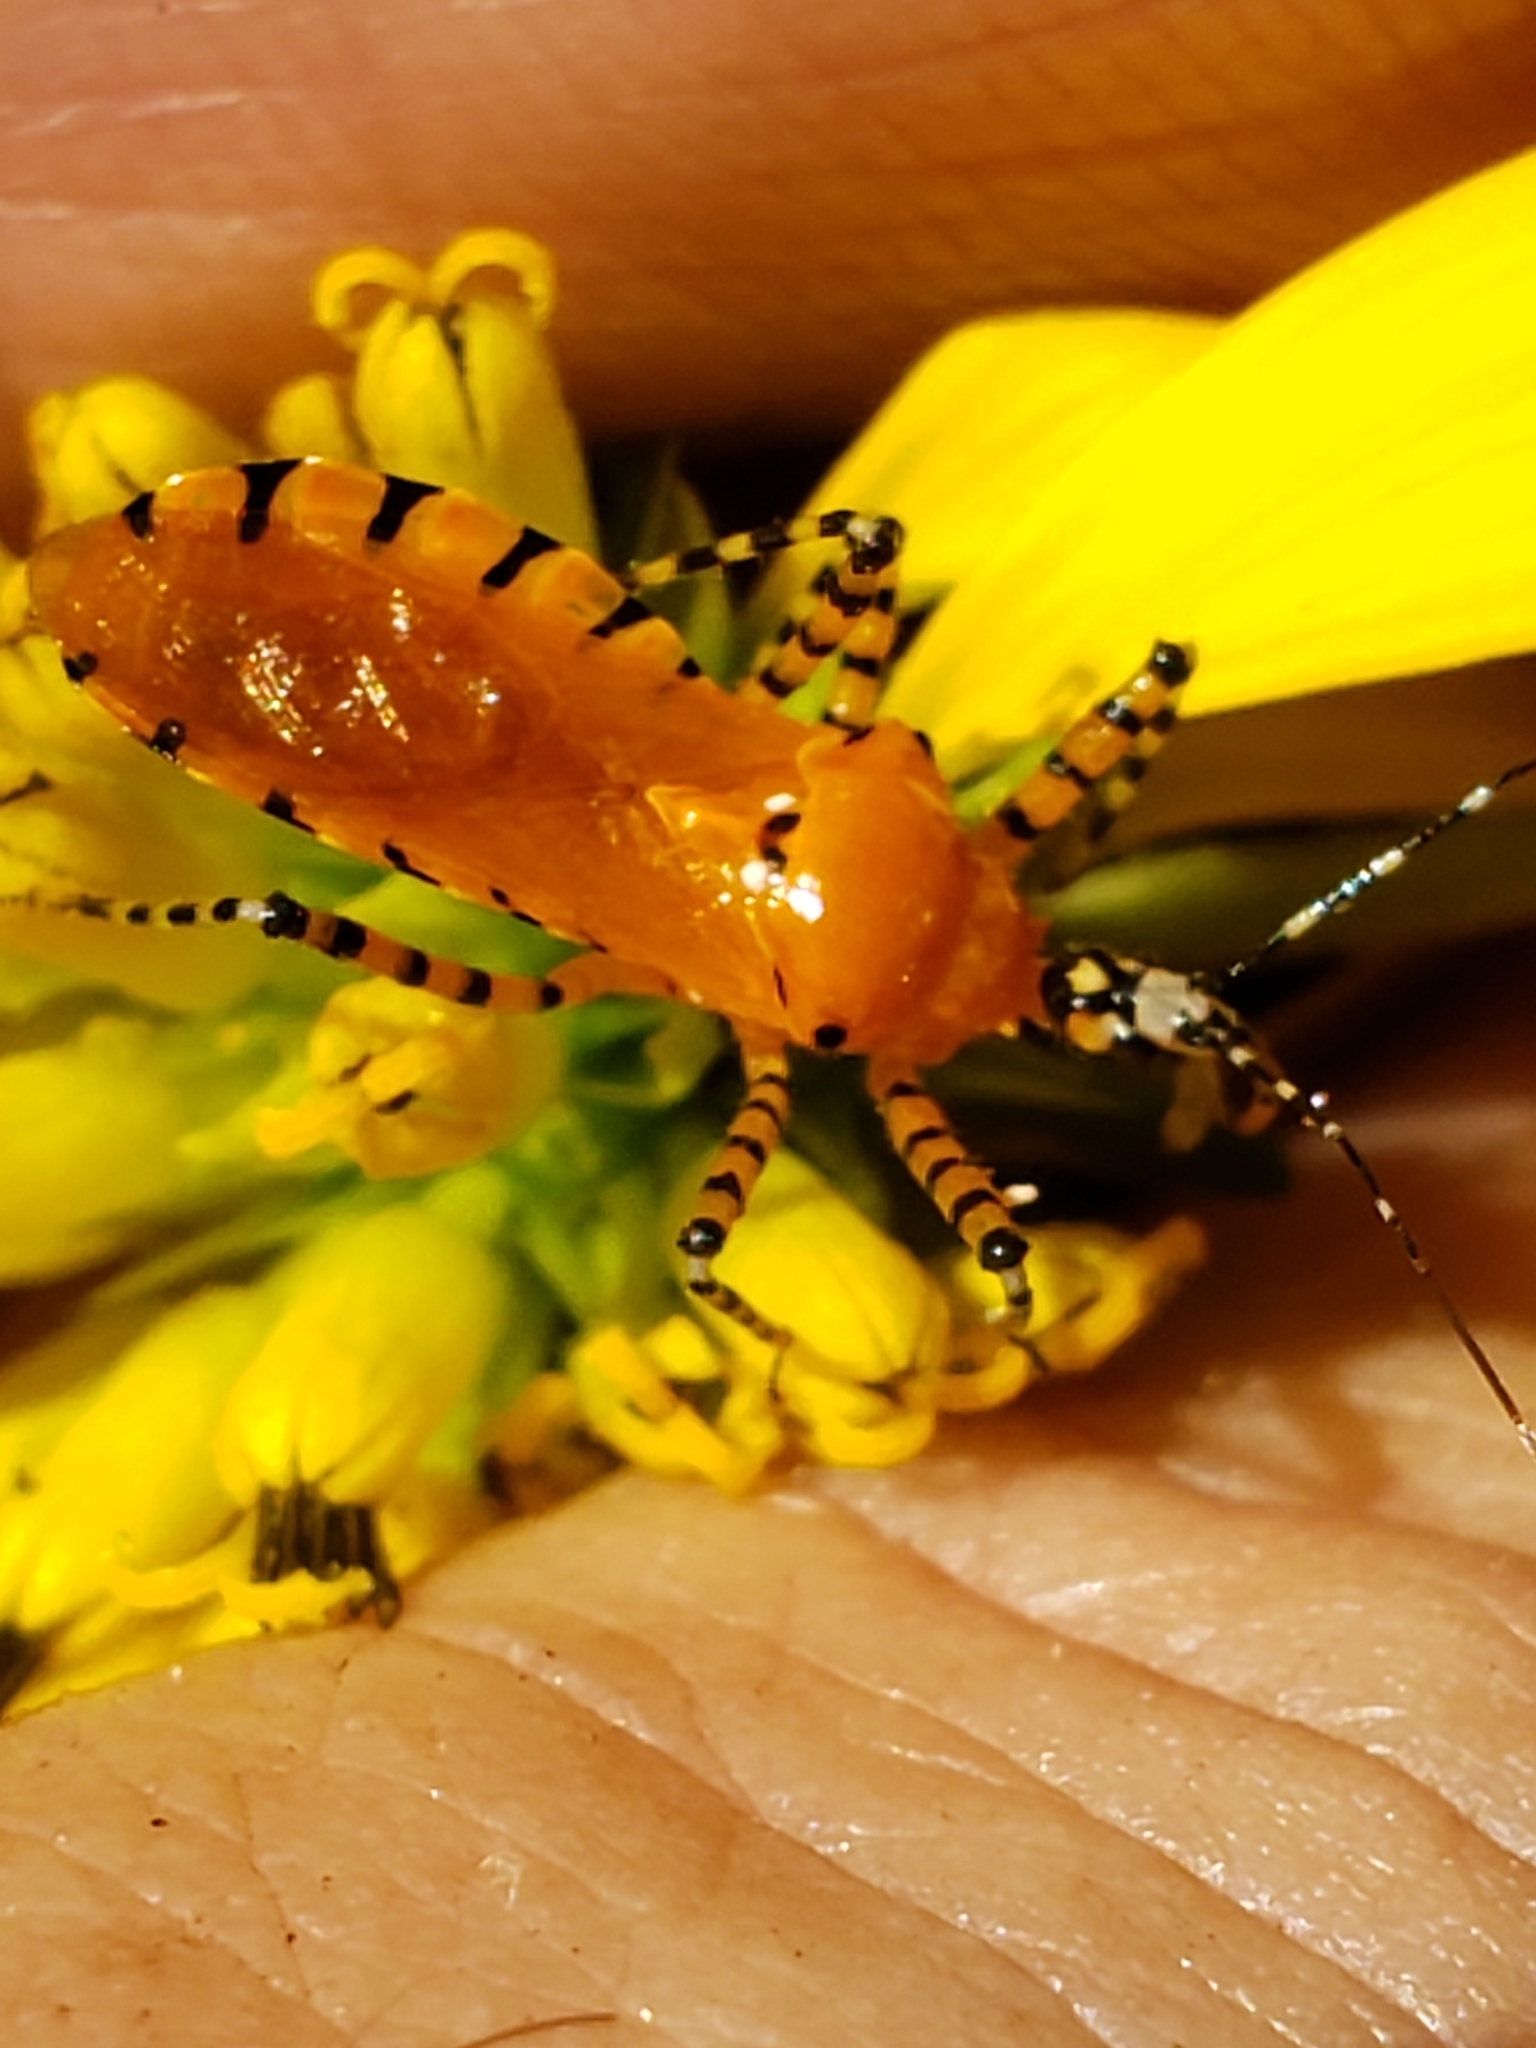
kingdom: Animalia
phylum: Arthropoda
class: Insecta
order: Hemiptera
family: Reduviidae
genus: Pselliopus
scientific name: Pselliopus barberi
